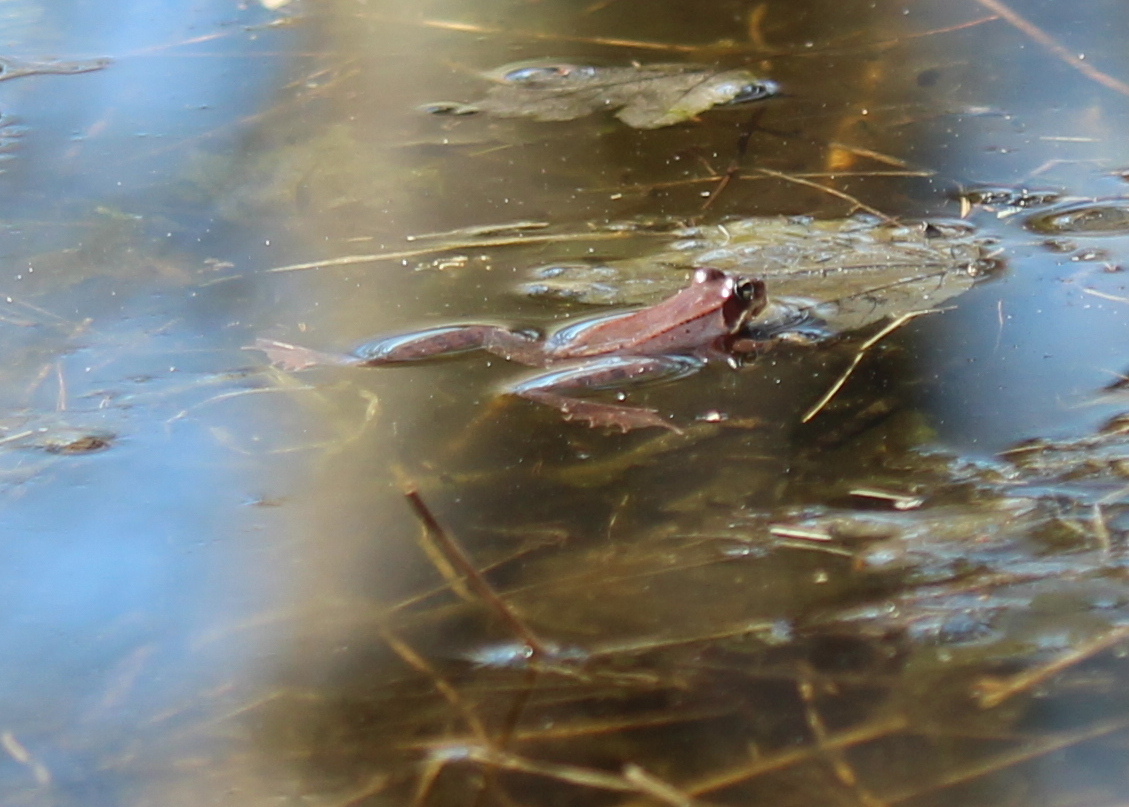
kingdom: Animalia
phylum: Chordata
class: Amphibia
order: Anura
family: Ranidae
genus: Lithobates
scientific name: Lithobates sylvaticus
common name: Wood frog
